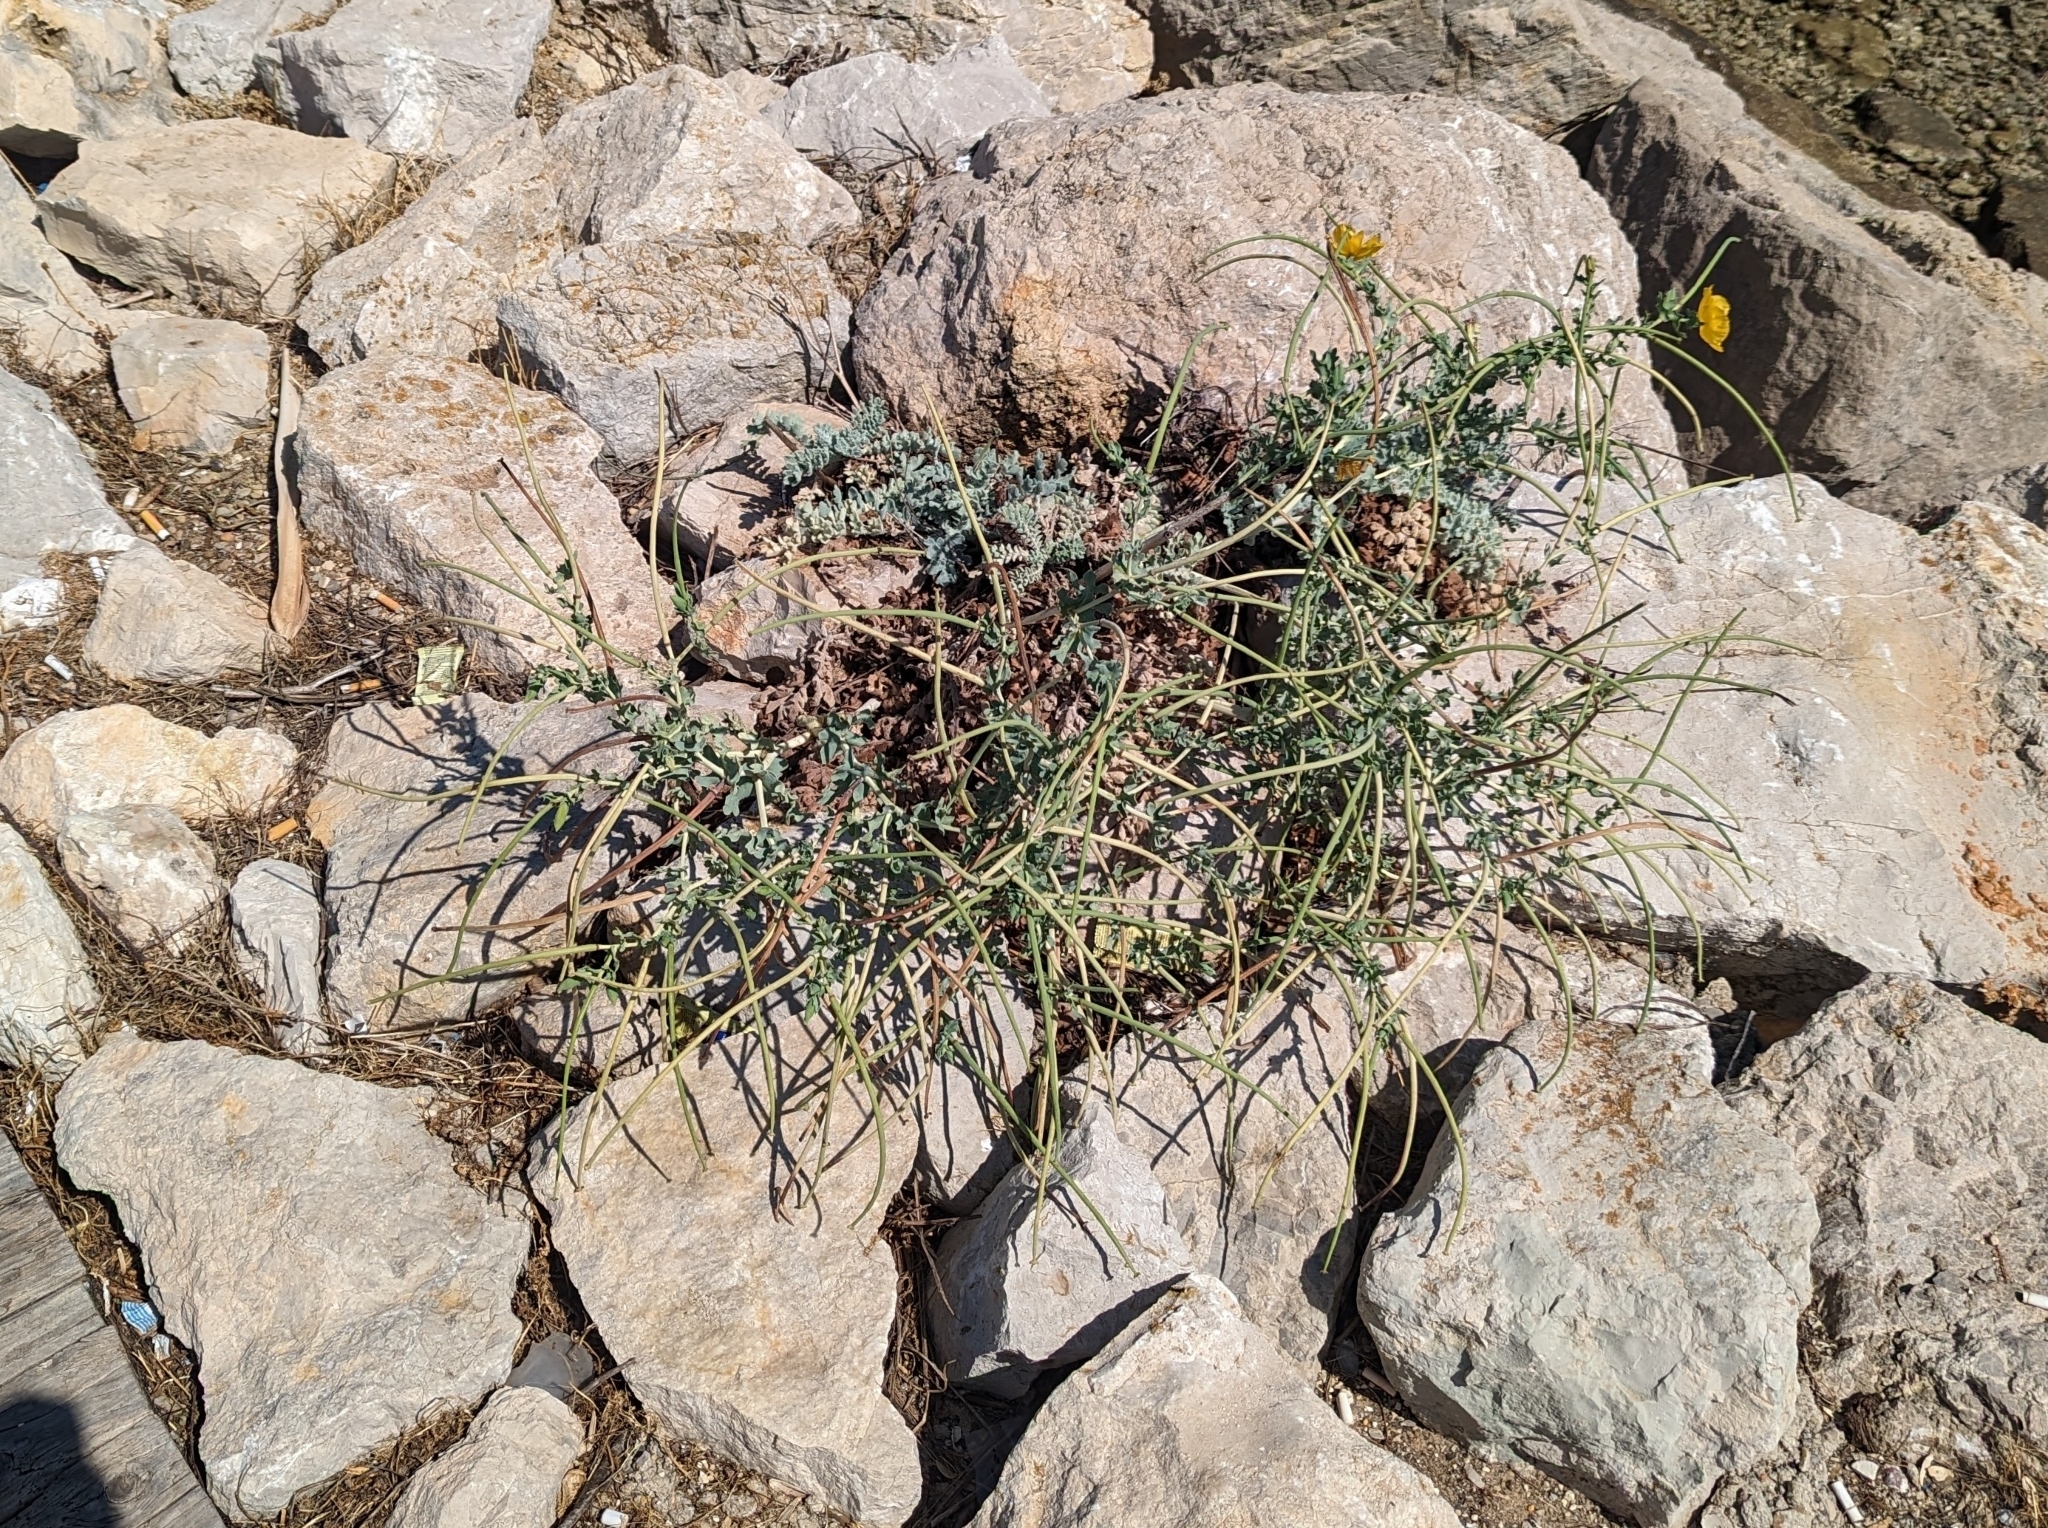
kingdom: Plantae
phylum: Tracheophyta
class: Magnoliopsida
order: Ranunculales
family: Papaveraceae
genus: Glaucium
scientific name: Glaucium flavum
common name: Yellow horned-poppy
